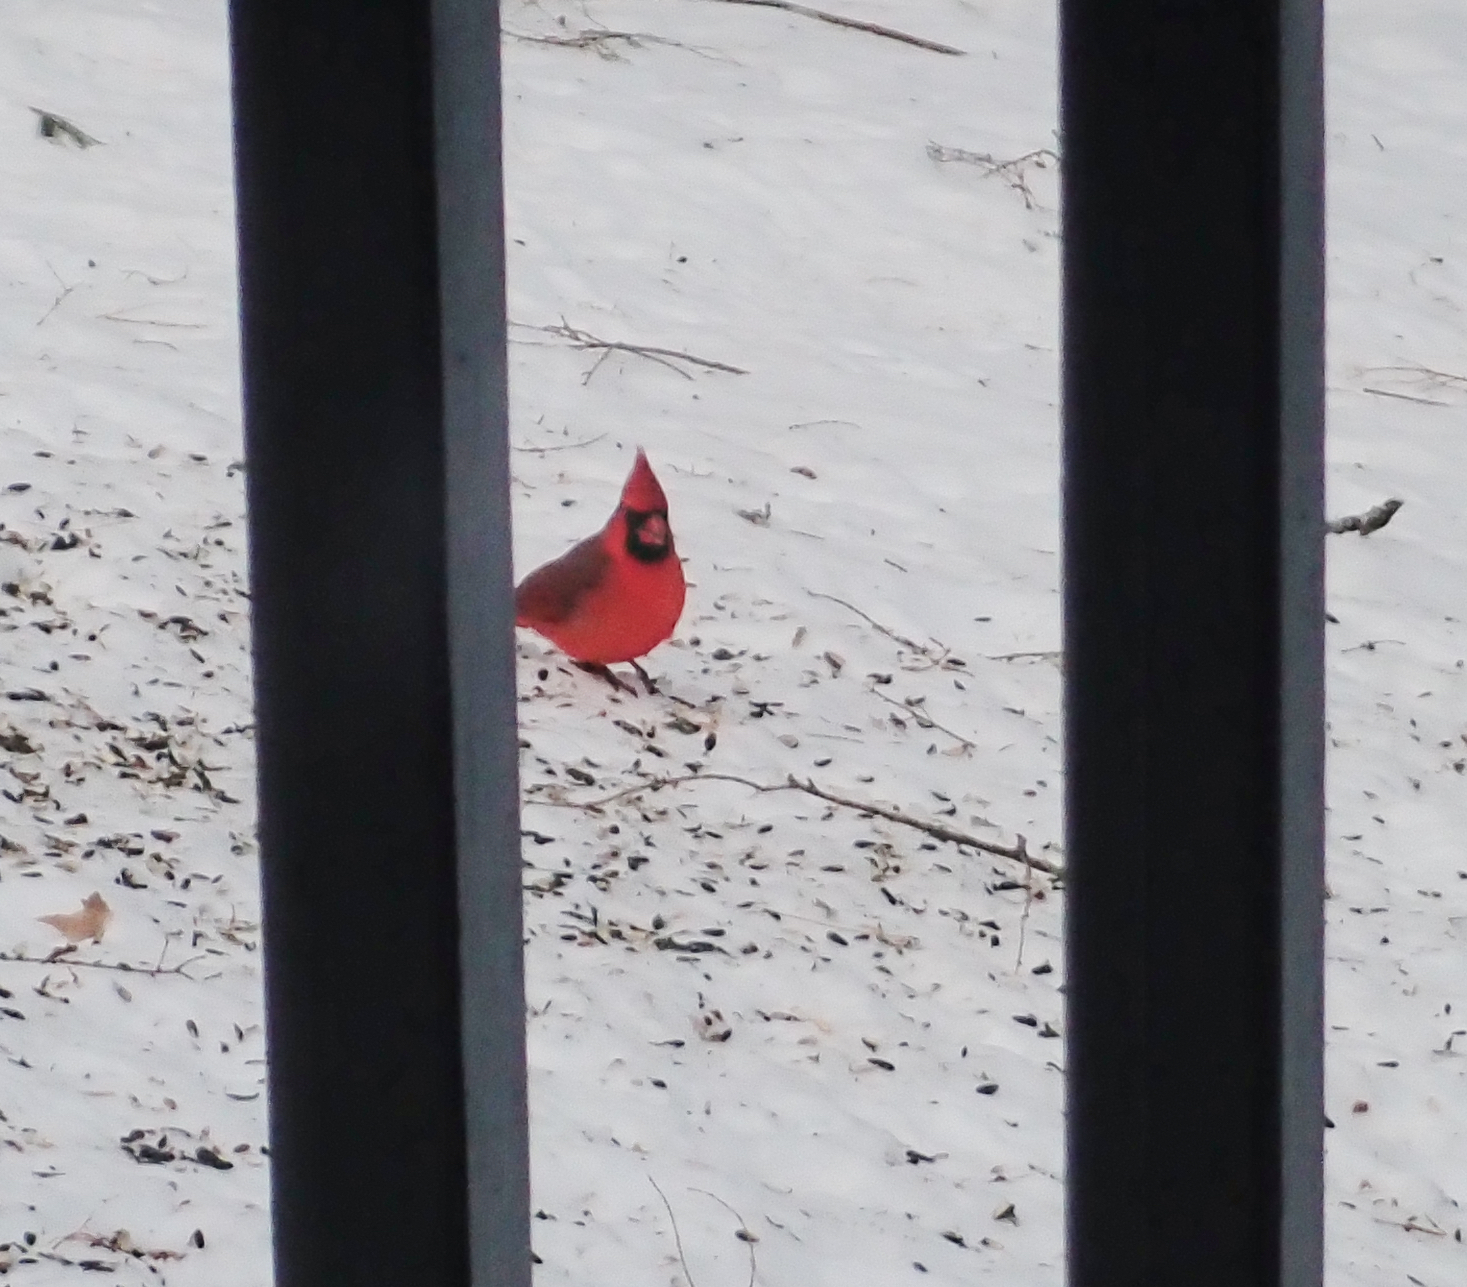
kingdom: Animalia
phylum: Chordata
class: Aves
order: Passeriformes
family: Cardinalidae
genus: Cardinalis
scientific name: Cardinalis cardinalis
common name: Northern cardinal
